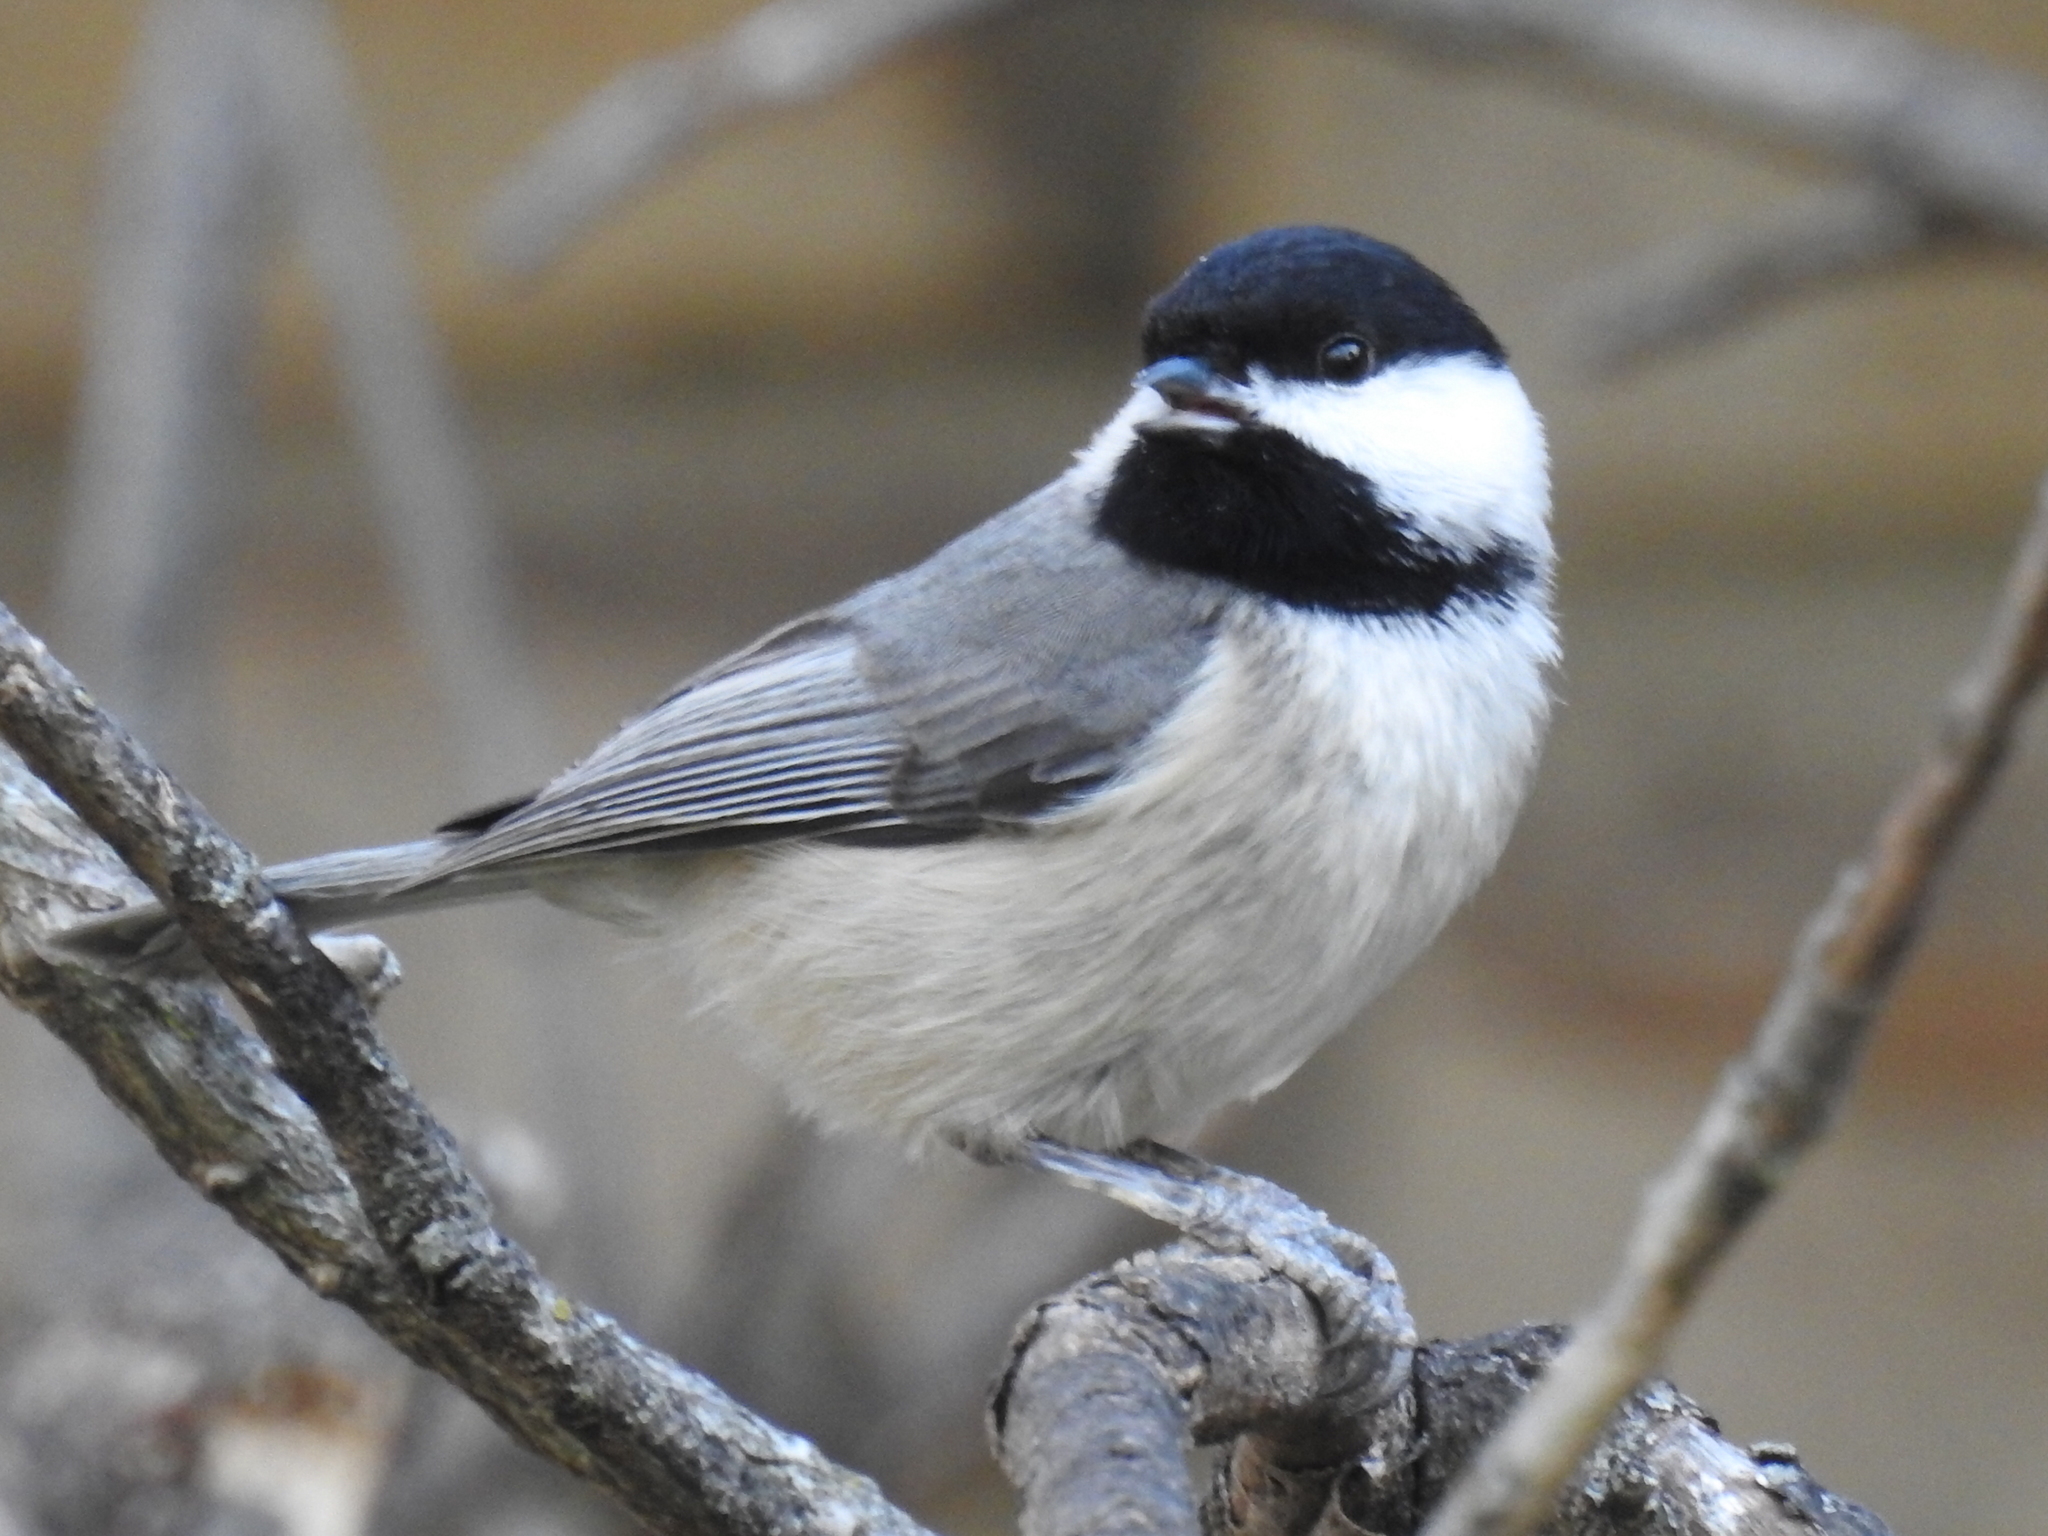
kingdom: Animalia
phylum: Chordata
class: Aves
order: Passeriformes
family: Paridae
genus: Poecile
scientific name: Poecile carolinensis
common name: Carolina chickadee
